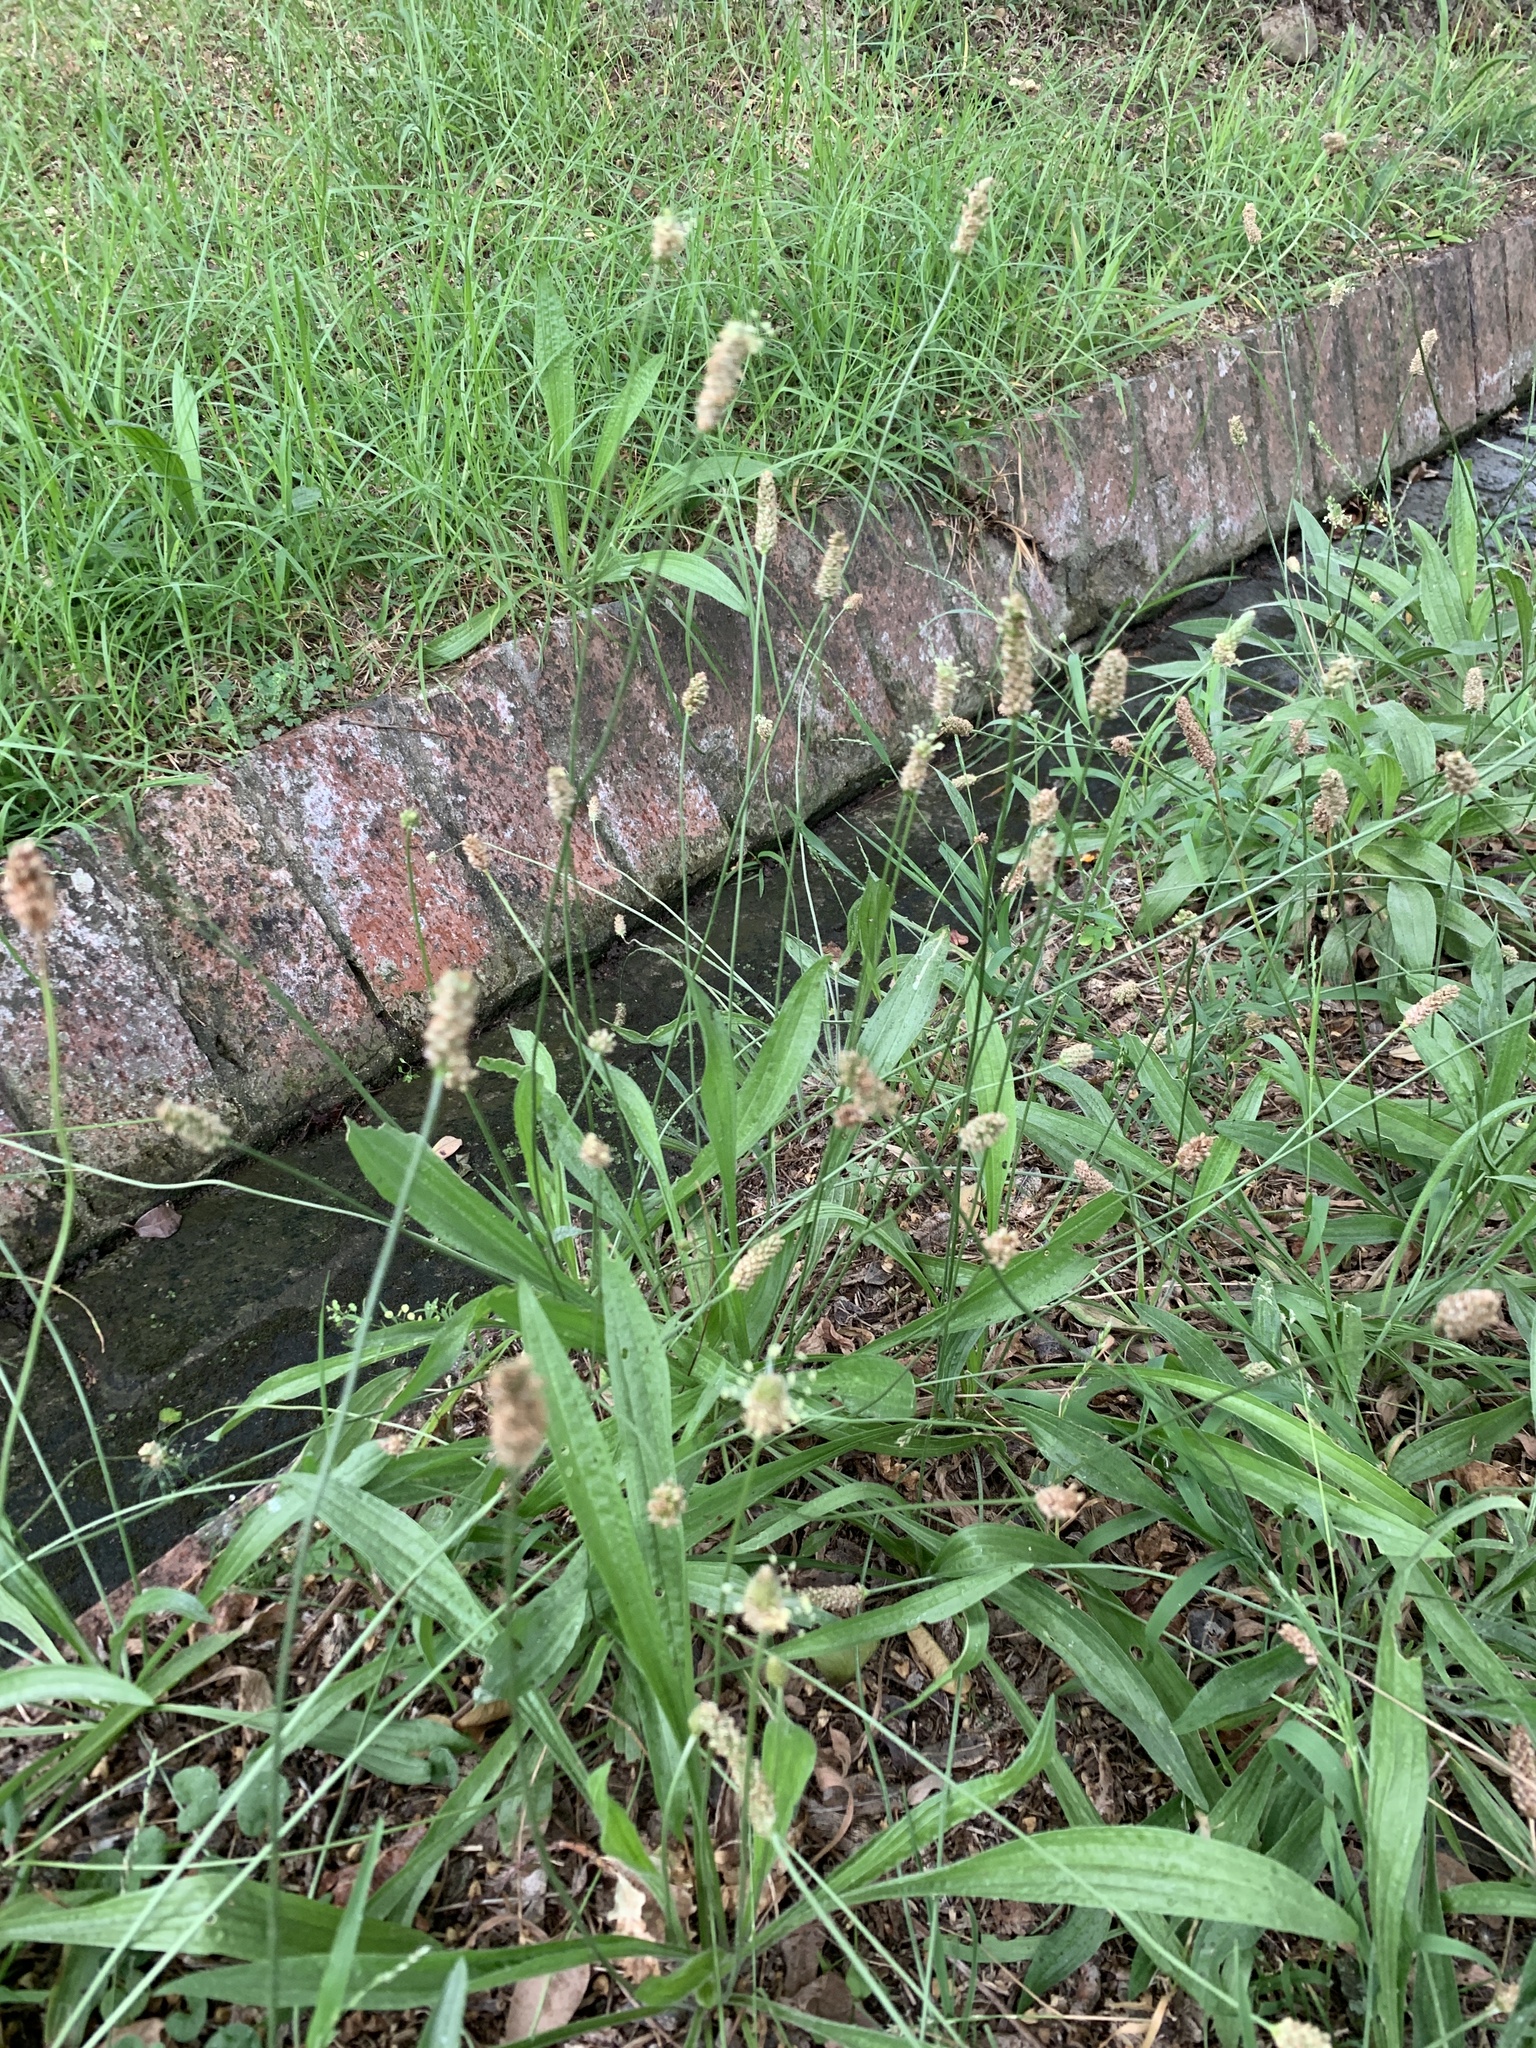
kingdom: Plantae
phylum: Tracheophyta
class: Magnoliopsida
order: Lamiales
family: Plantaginaceae
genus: Plantago
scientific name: Plantago lanceolata
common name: Ribwort plantain
